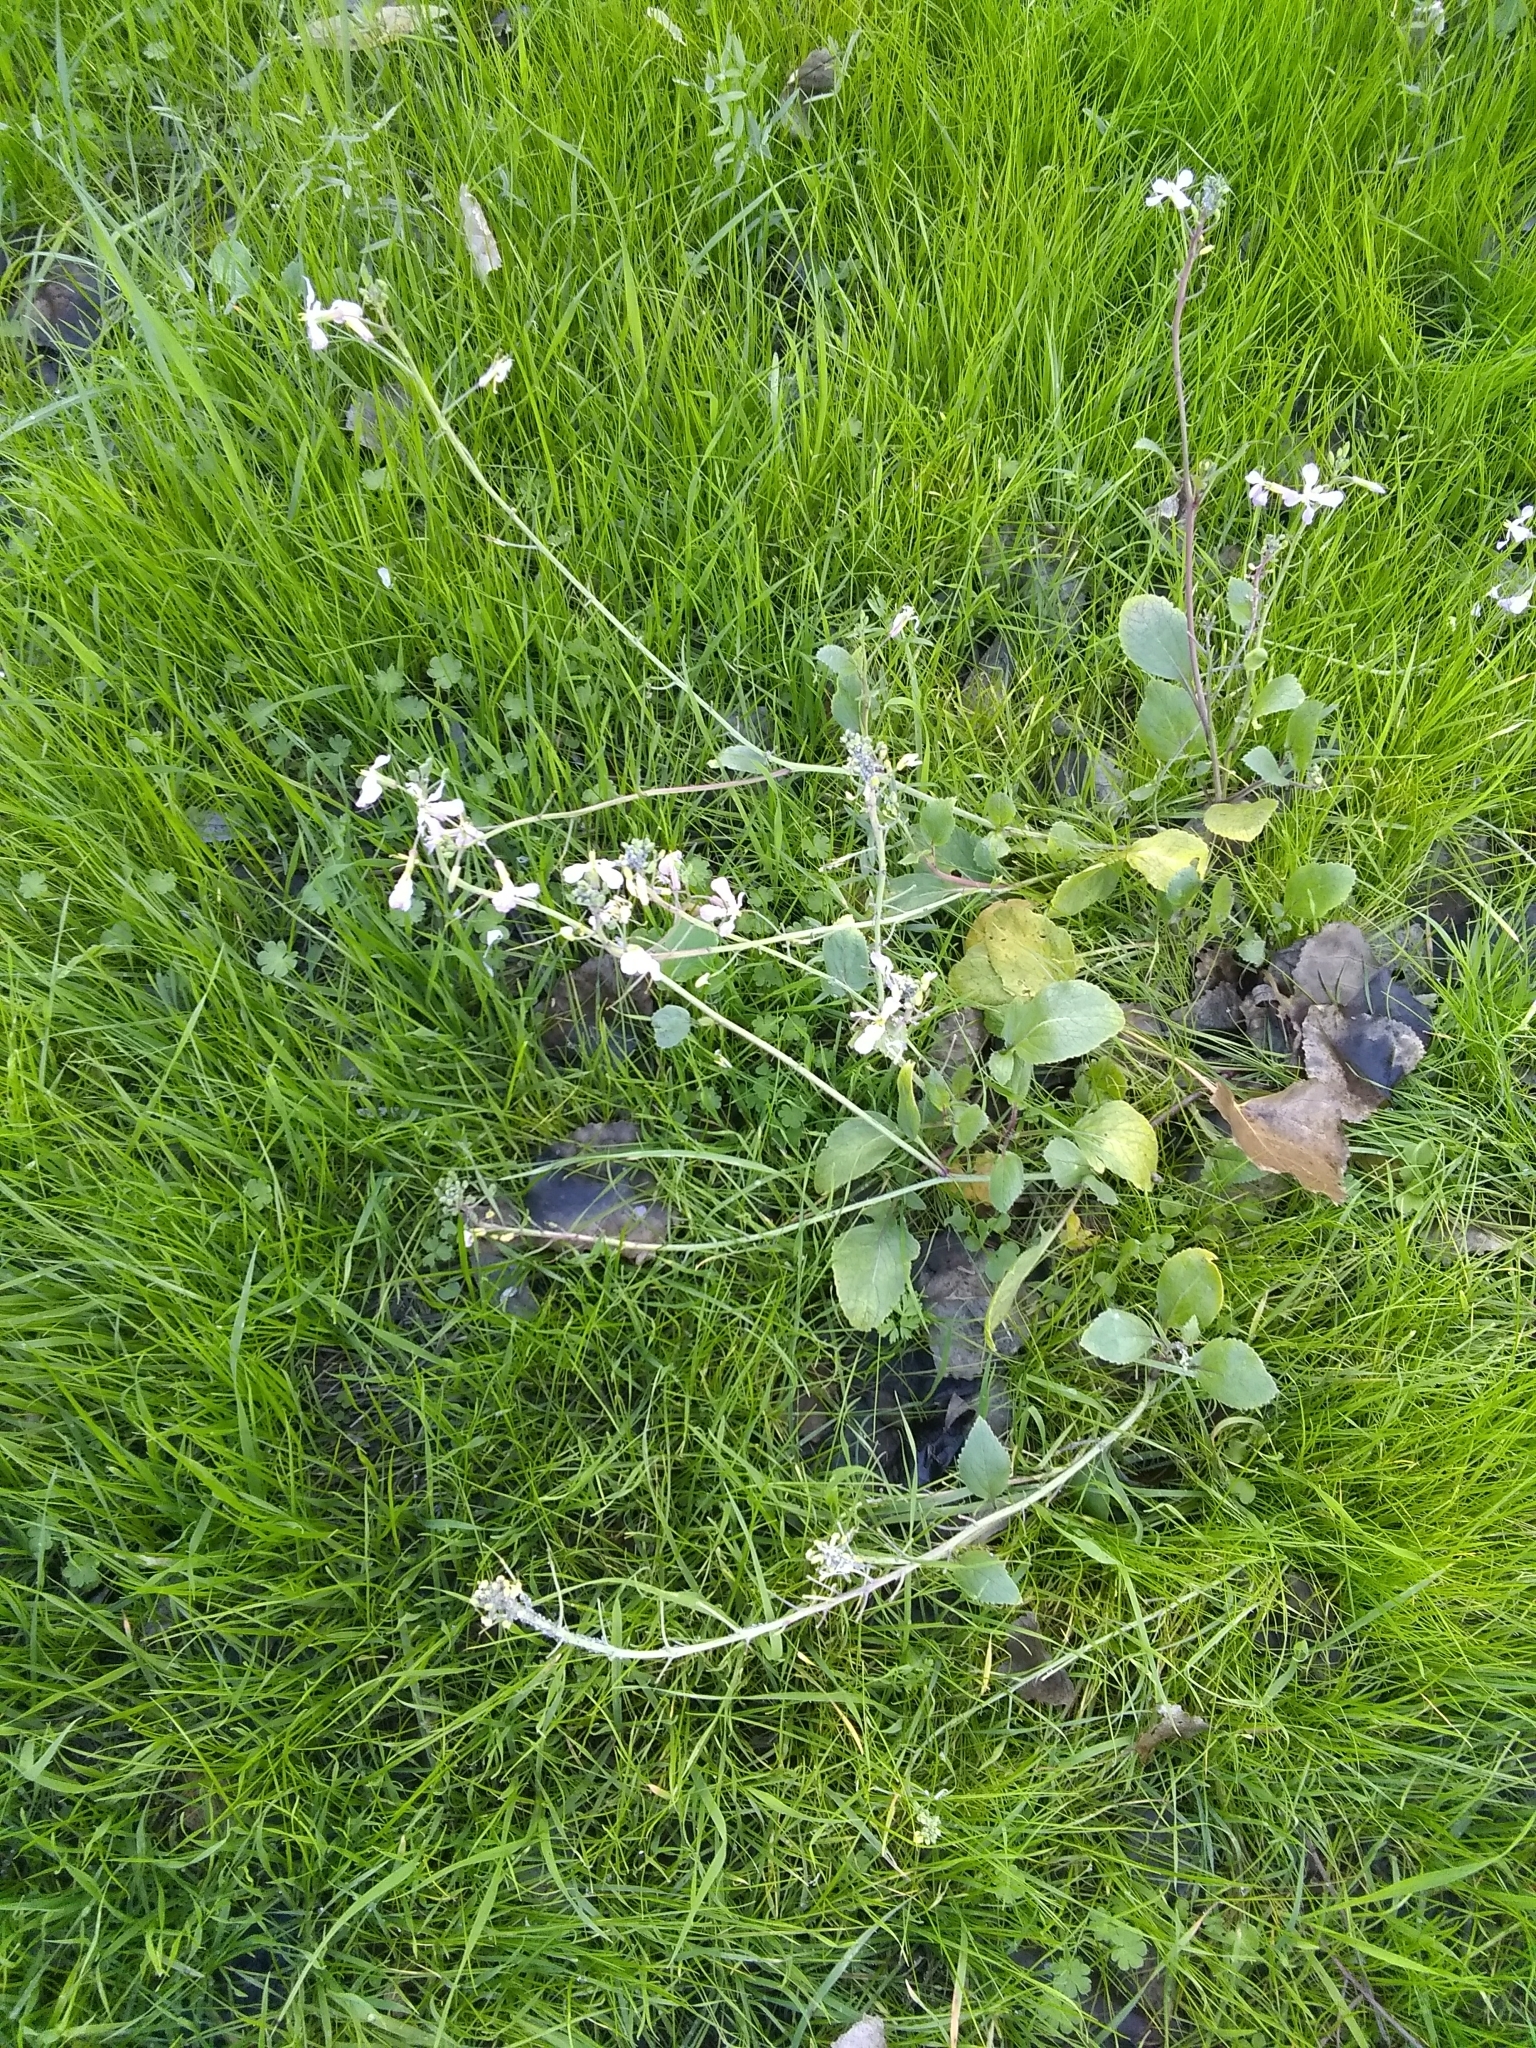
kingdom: Plantae
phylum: Tracheophyta
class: Magnoliopsida
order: Brassicales
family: Brassicaceae
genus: Raphanus
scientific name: Raphanus sativus
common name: Cultivated radish
